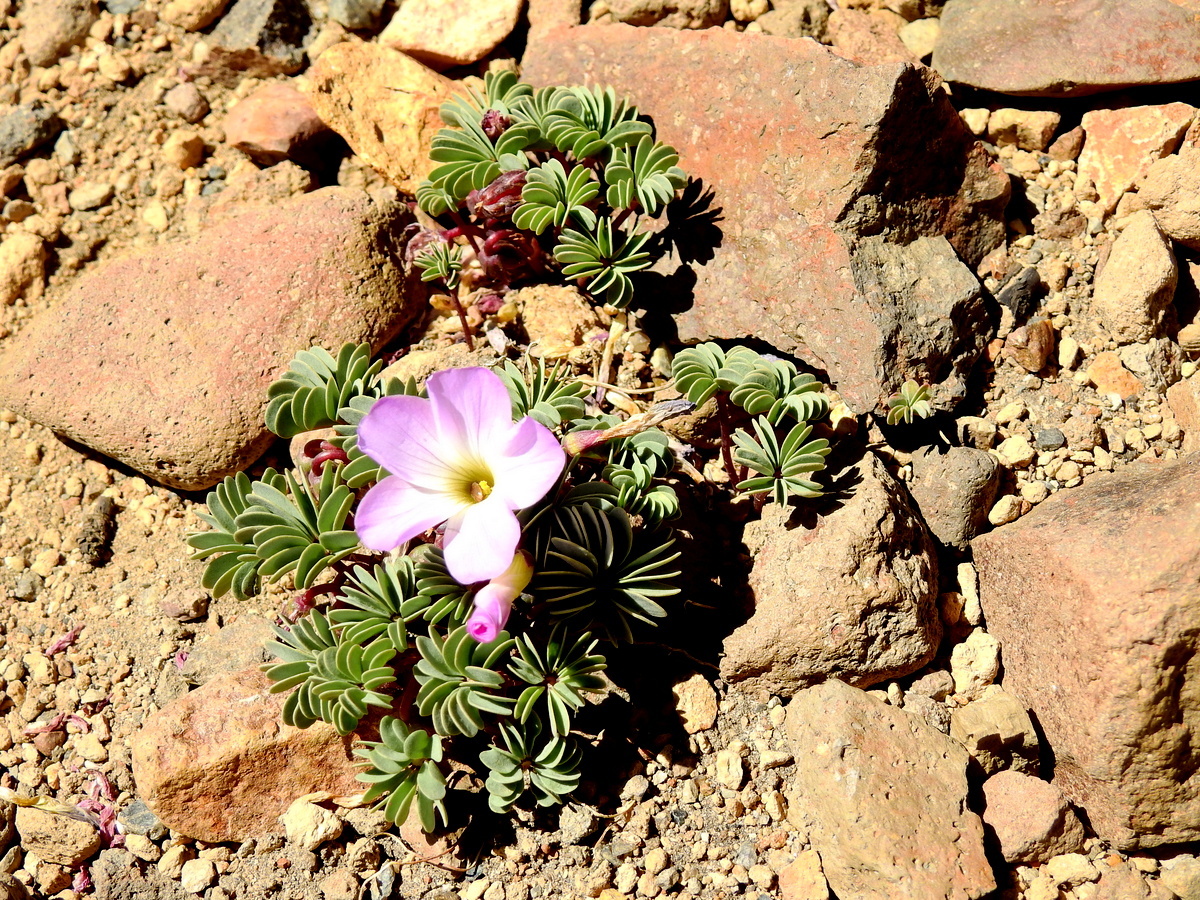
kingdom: Plantae
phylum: Tracheophyta
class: Magnoliopsida
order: Oxalidales
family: Oxalidaceae
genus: Oxalis
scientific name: Oxalis adenophylla
